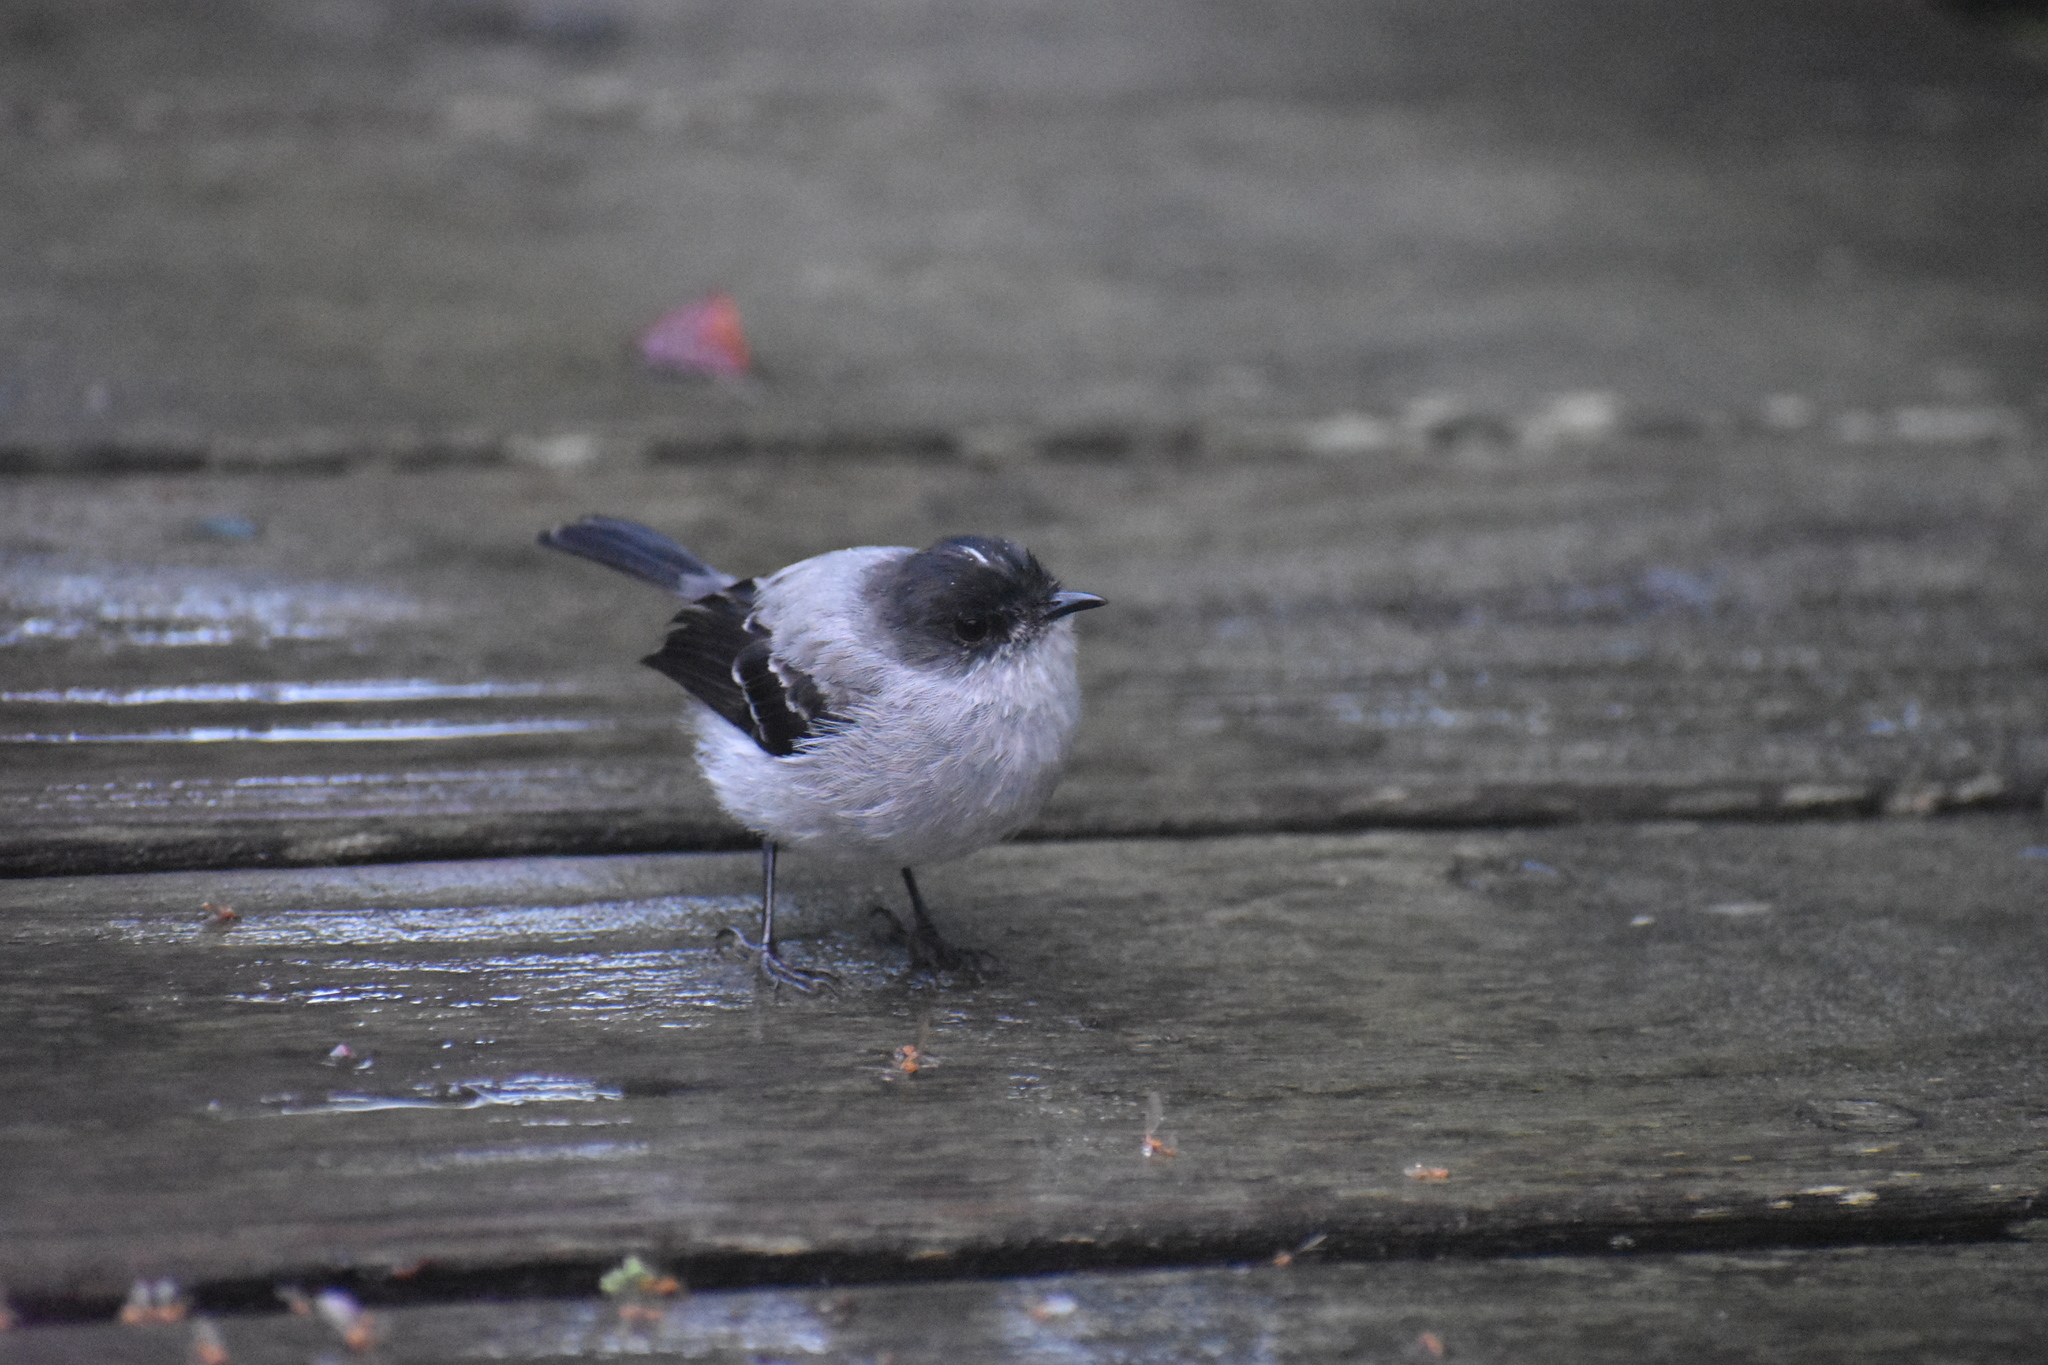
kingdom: Animalia
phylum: Chordata
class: Aves
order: Passeriformes
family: Tyrannidae
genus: Serpophaga
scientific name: Serpophaga cinerea
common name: Torrent tyrannulet
